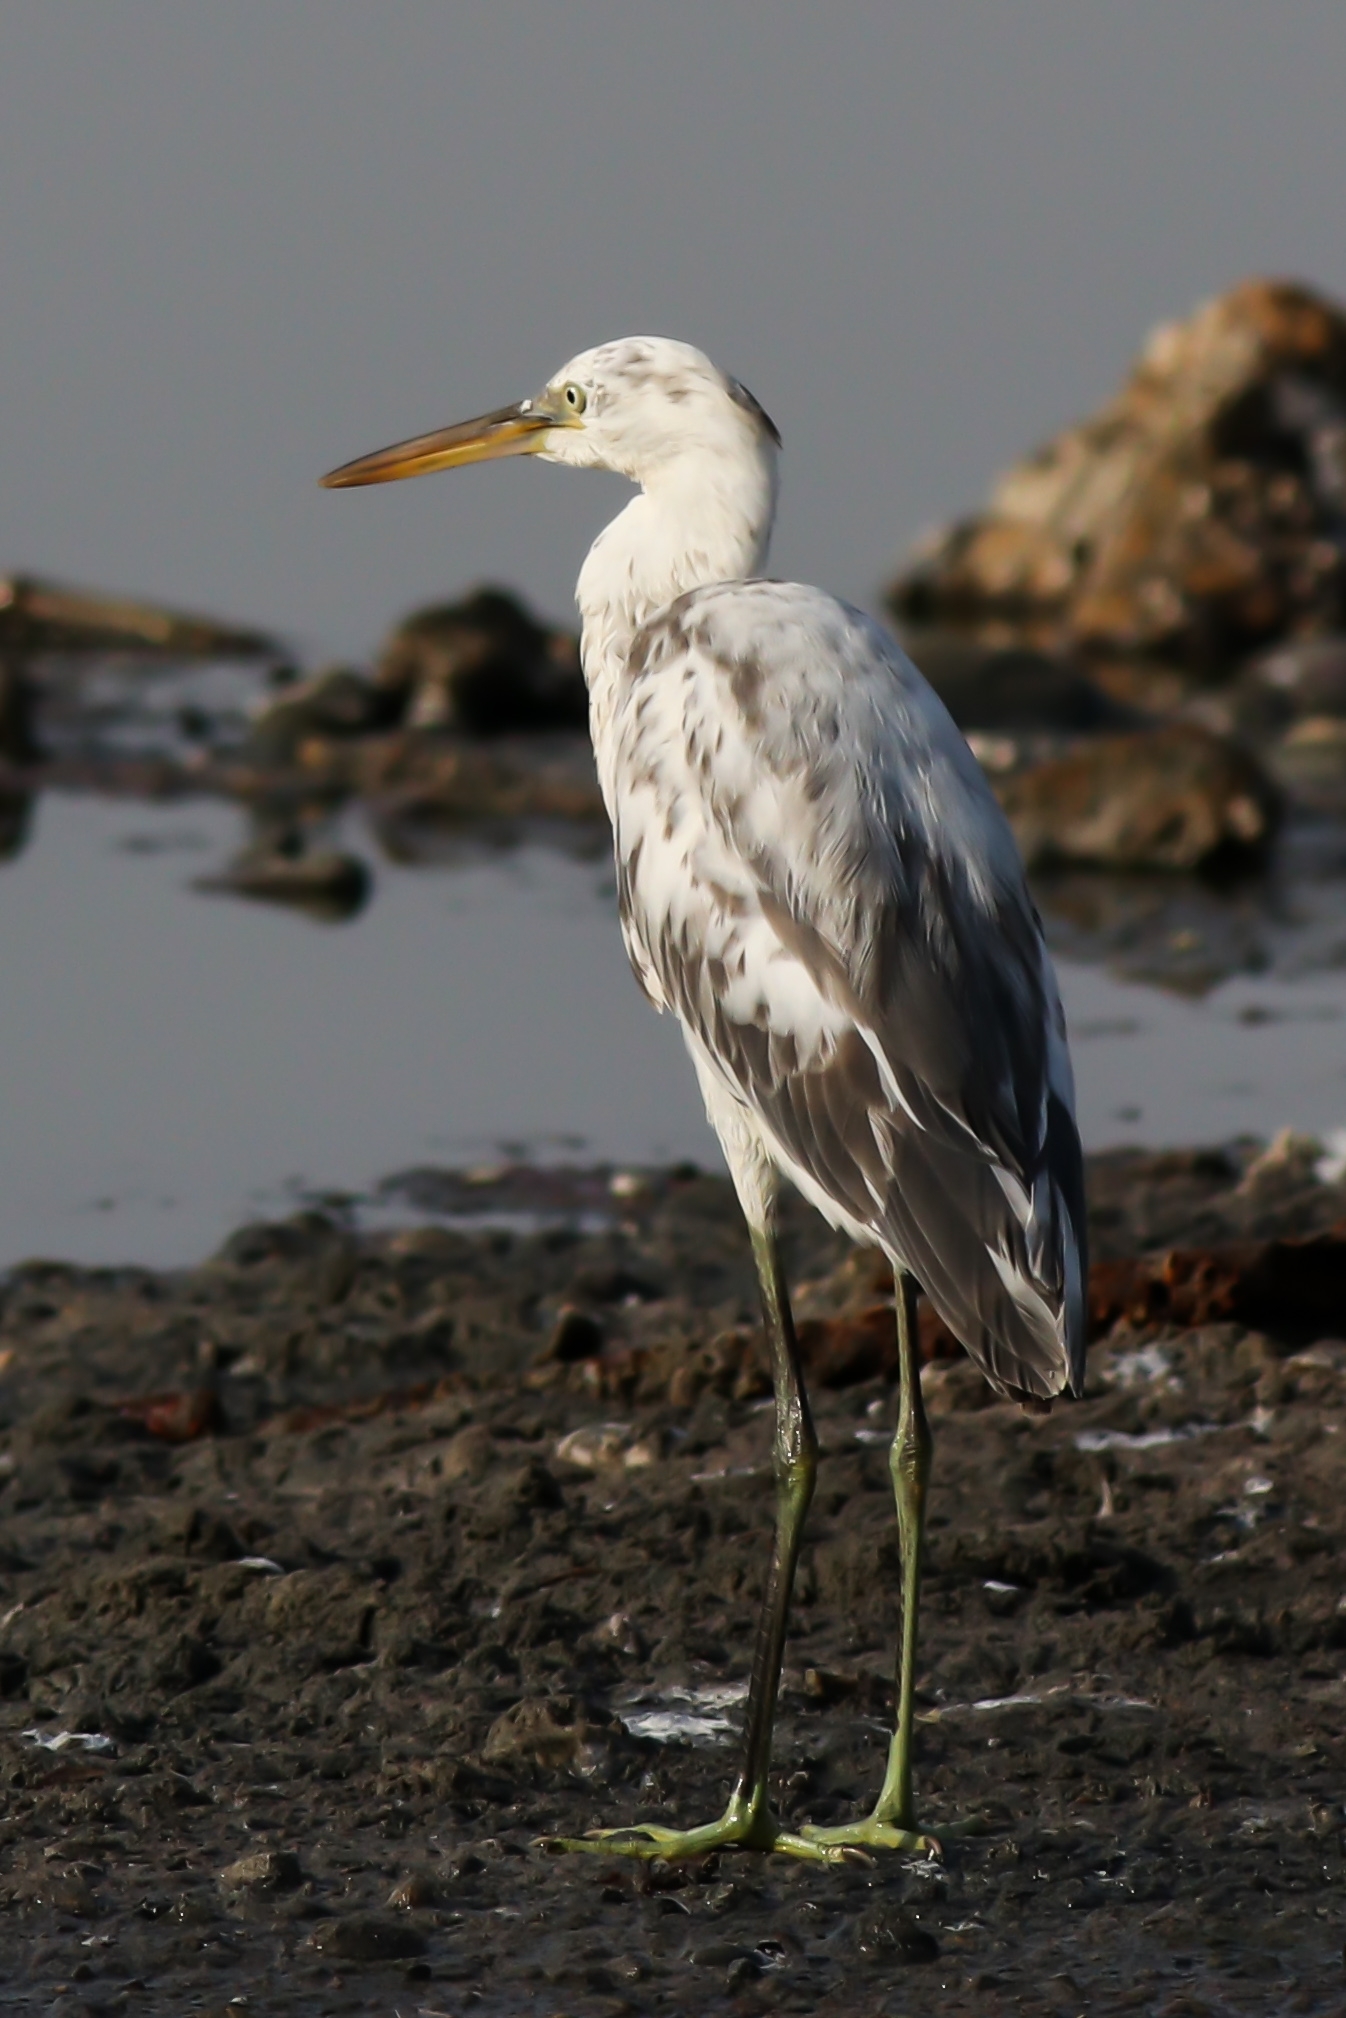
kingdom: Animalia
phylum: Chordata
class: Aves
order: Pelecaniformes
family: Ardeidae
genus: Egretta
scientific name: Egretta gularis
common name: Western reef-heron
